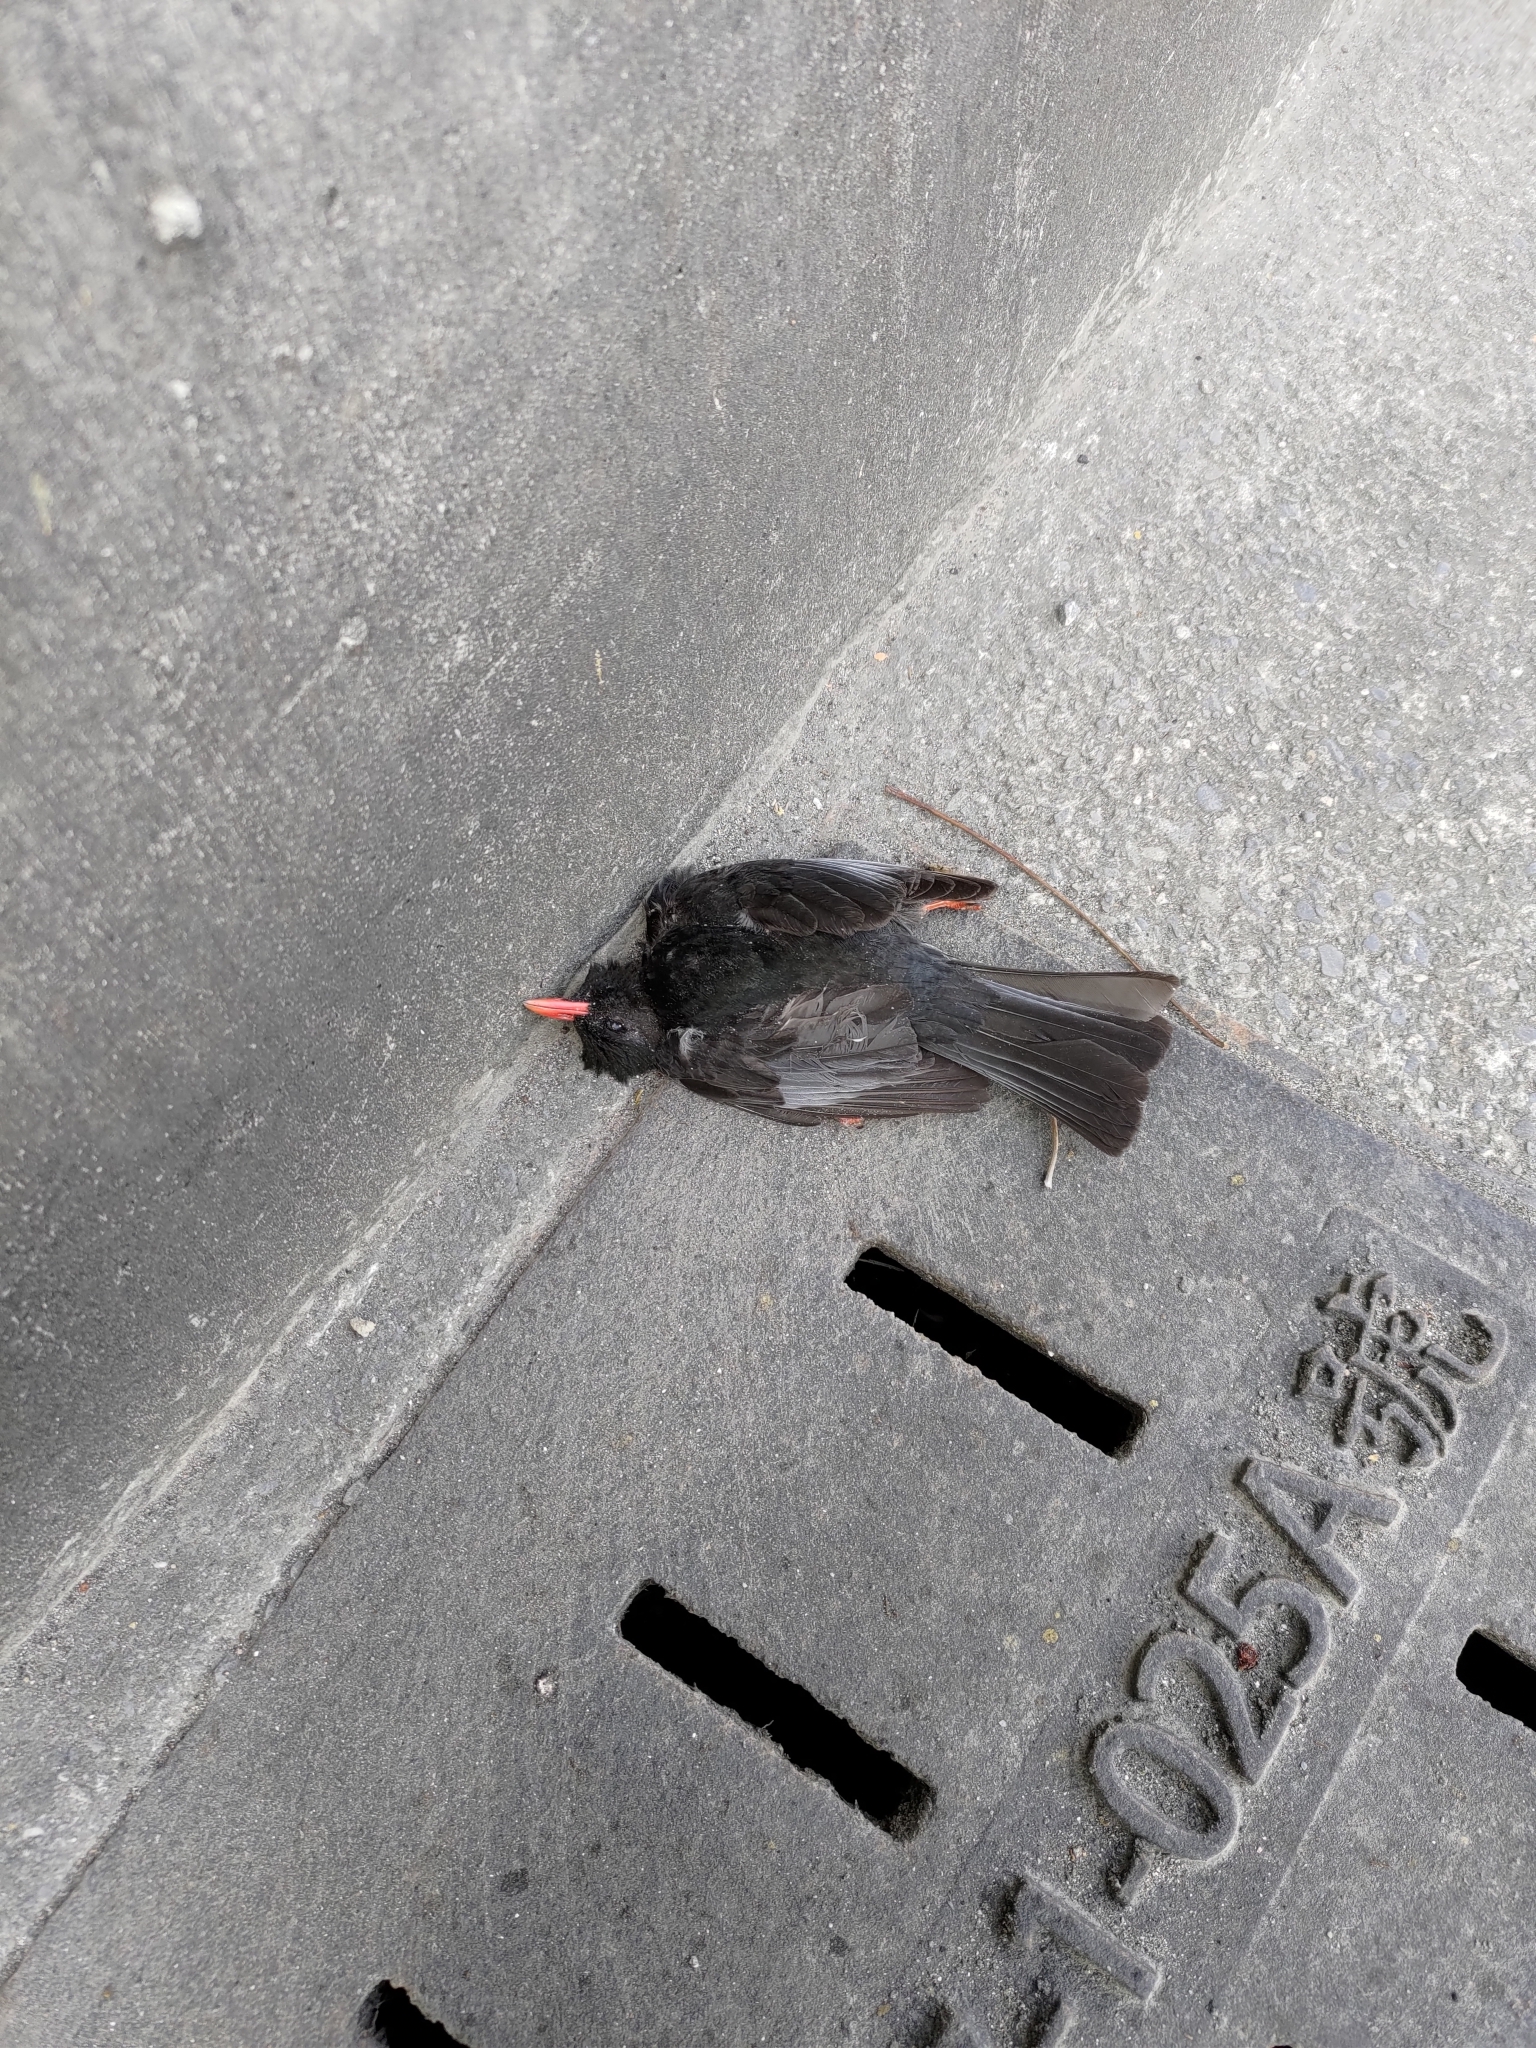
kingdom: Animalia
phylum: Chordata
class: Aves
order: Passeriformes
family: Pycnonotidae
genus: Hypsipetes
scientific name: Hypsipetes leucocephalus
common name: Black bulbul
